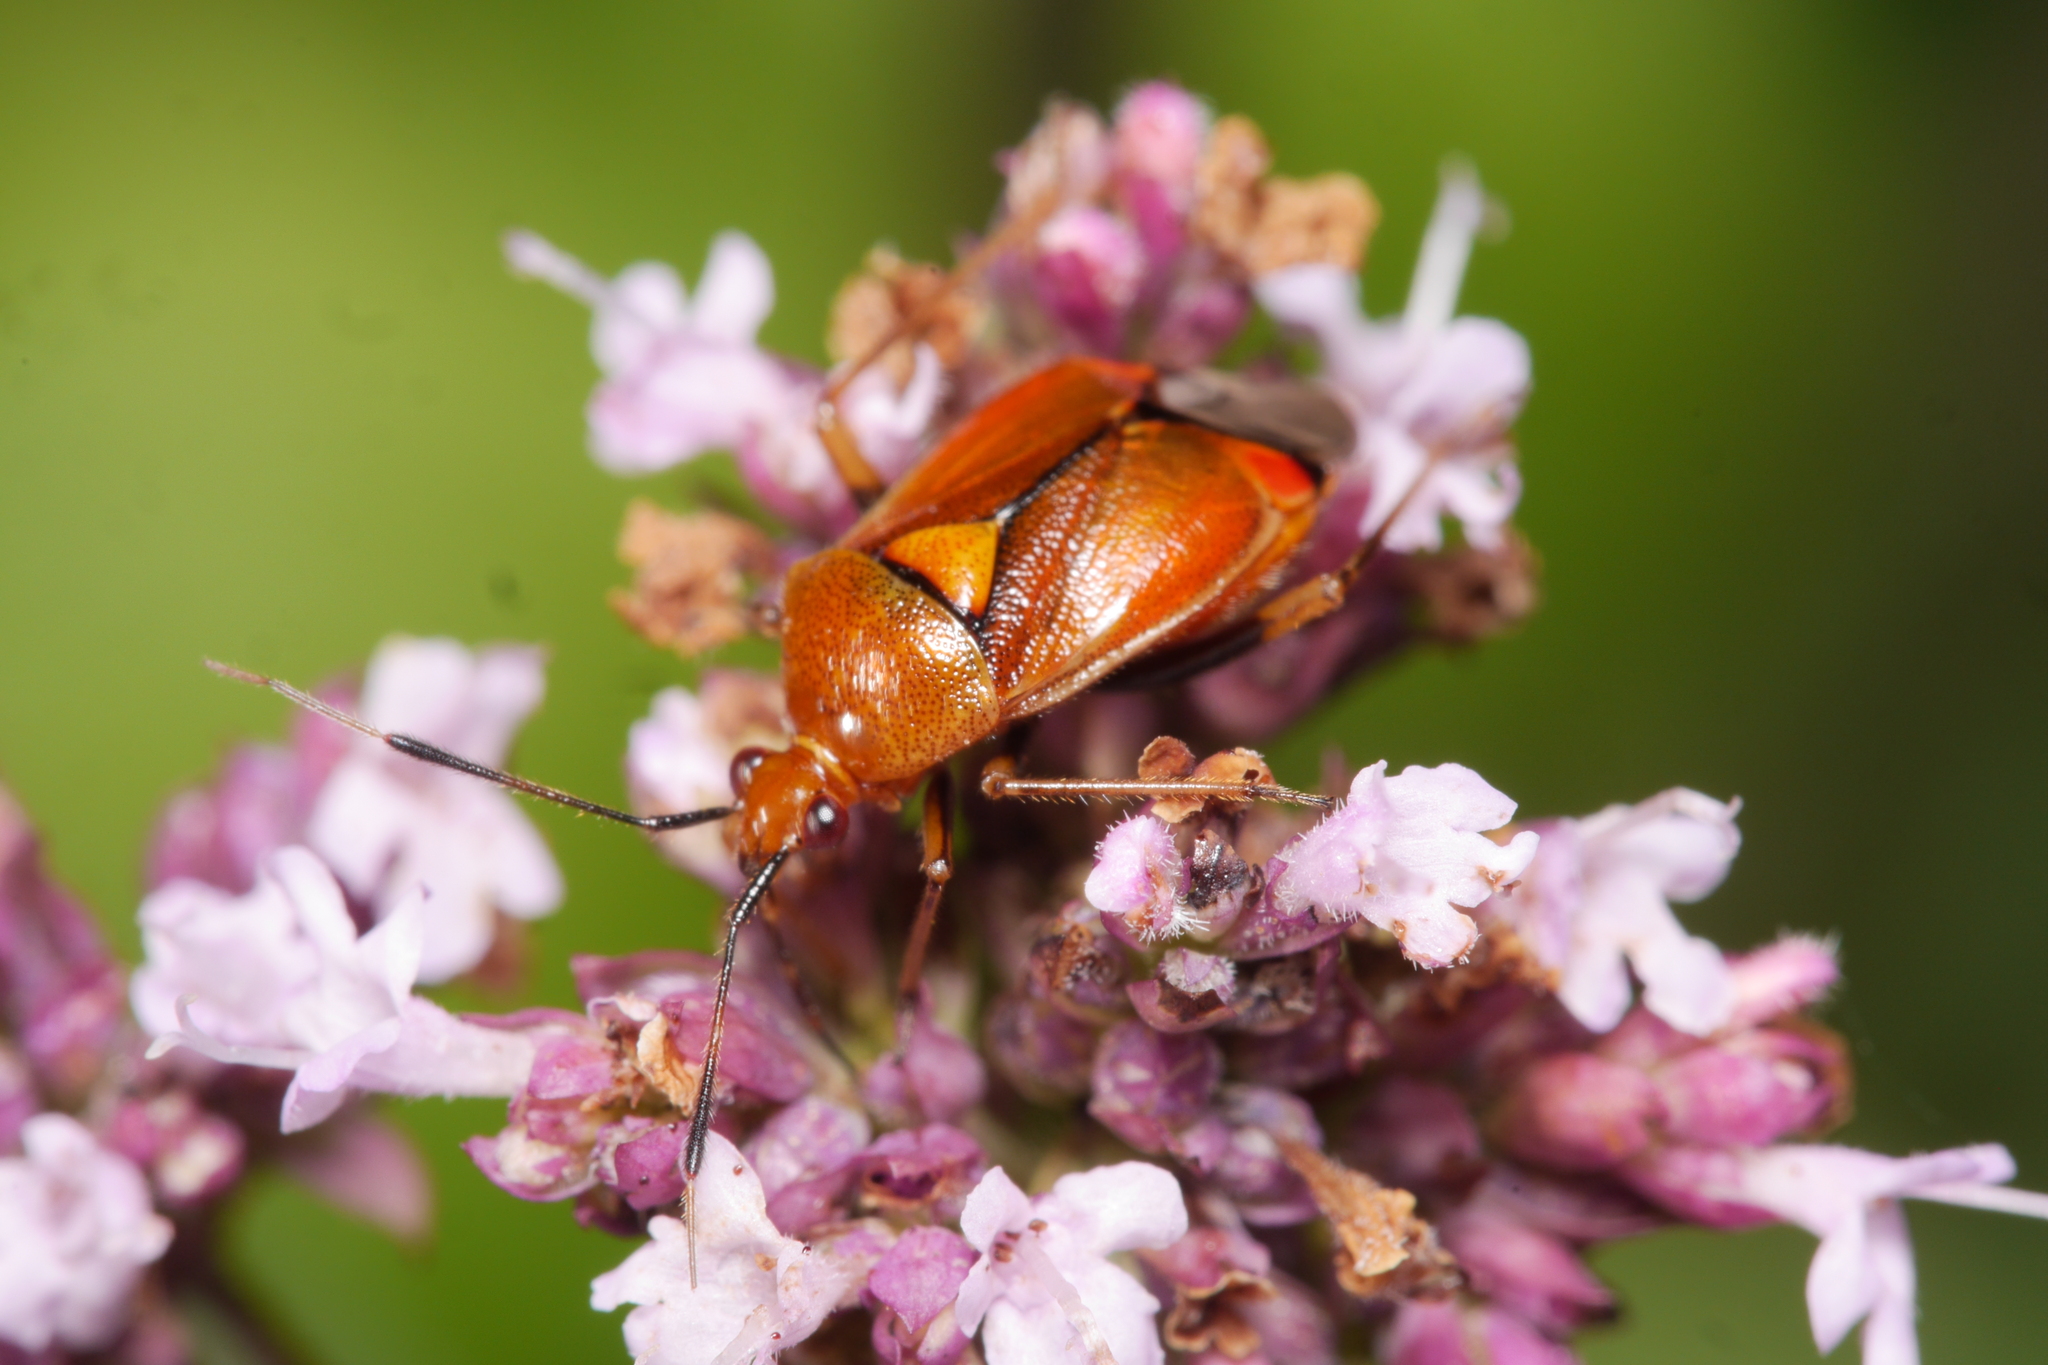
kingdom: Animalia
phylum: Arthropoda
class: Insecta
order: Hemiptera
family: Miridae
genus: Deraeocoris
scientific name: Deraeocoris ruber
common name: Plant bug
